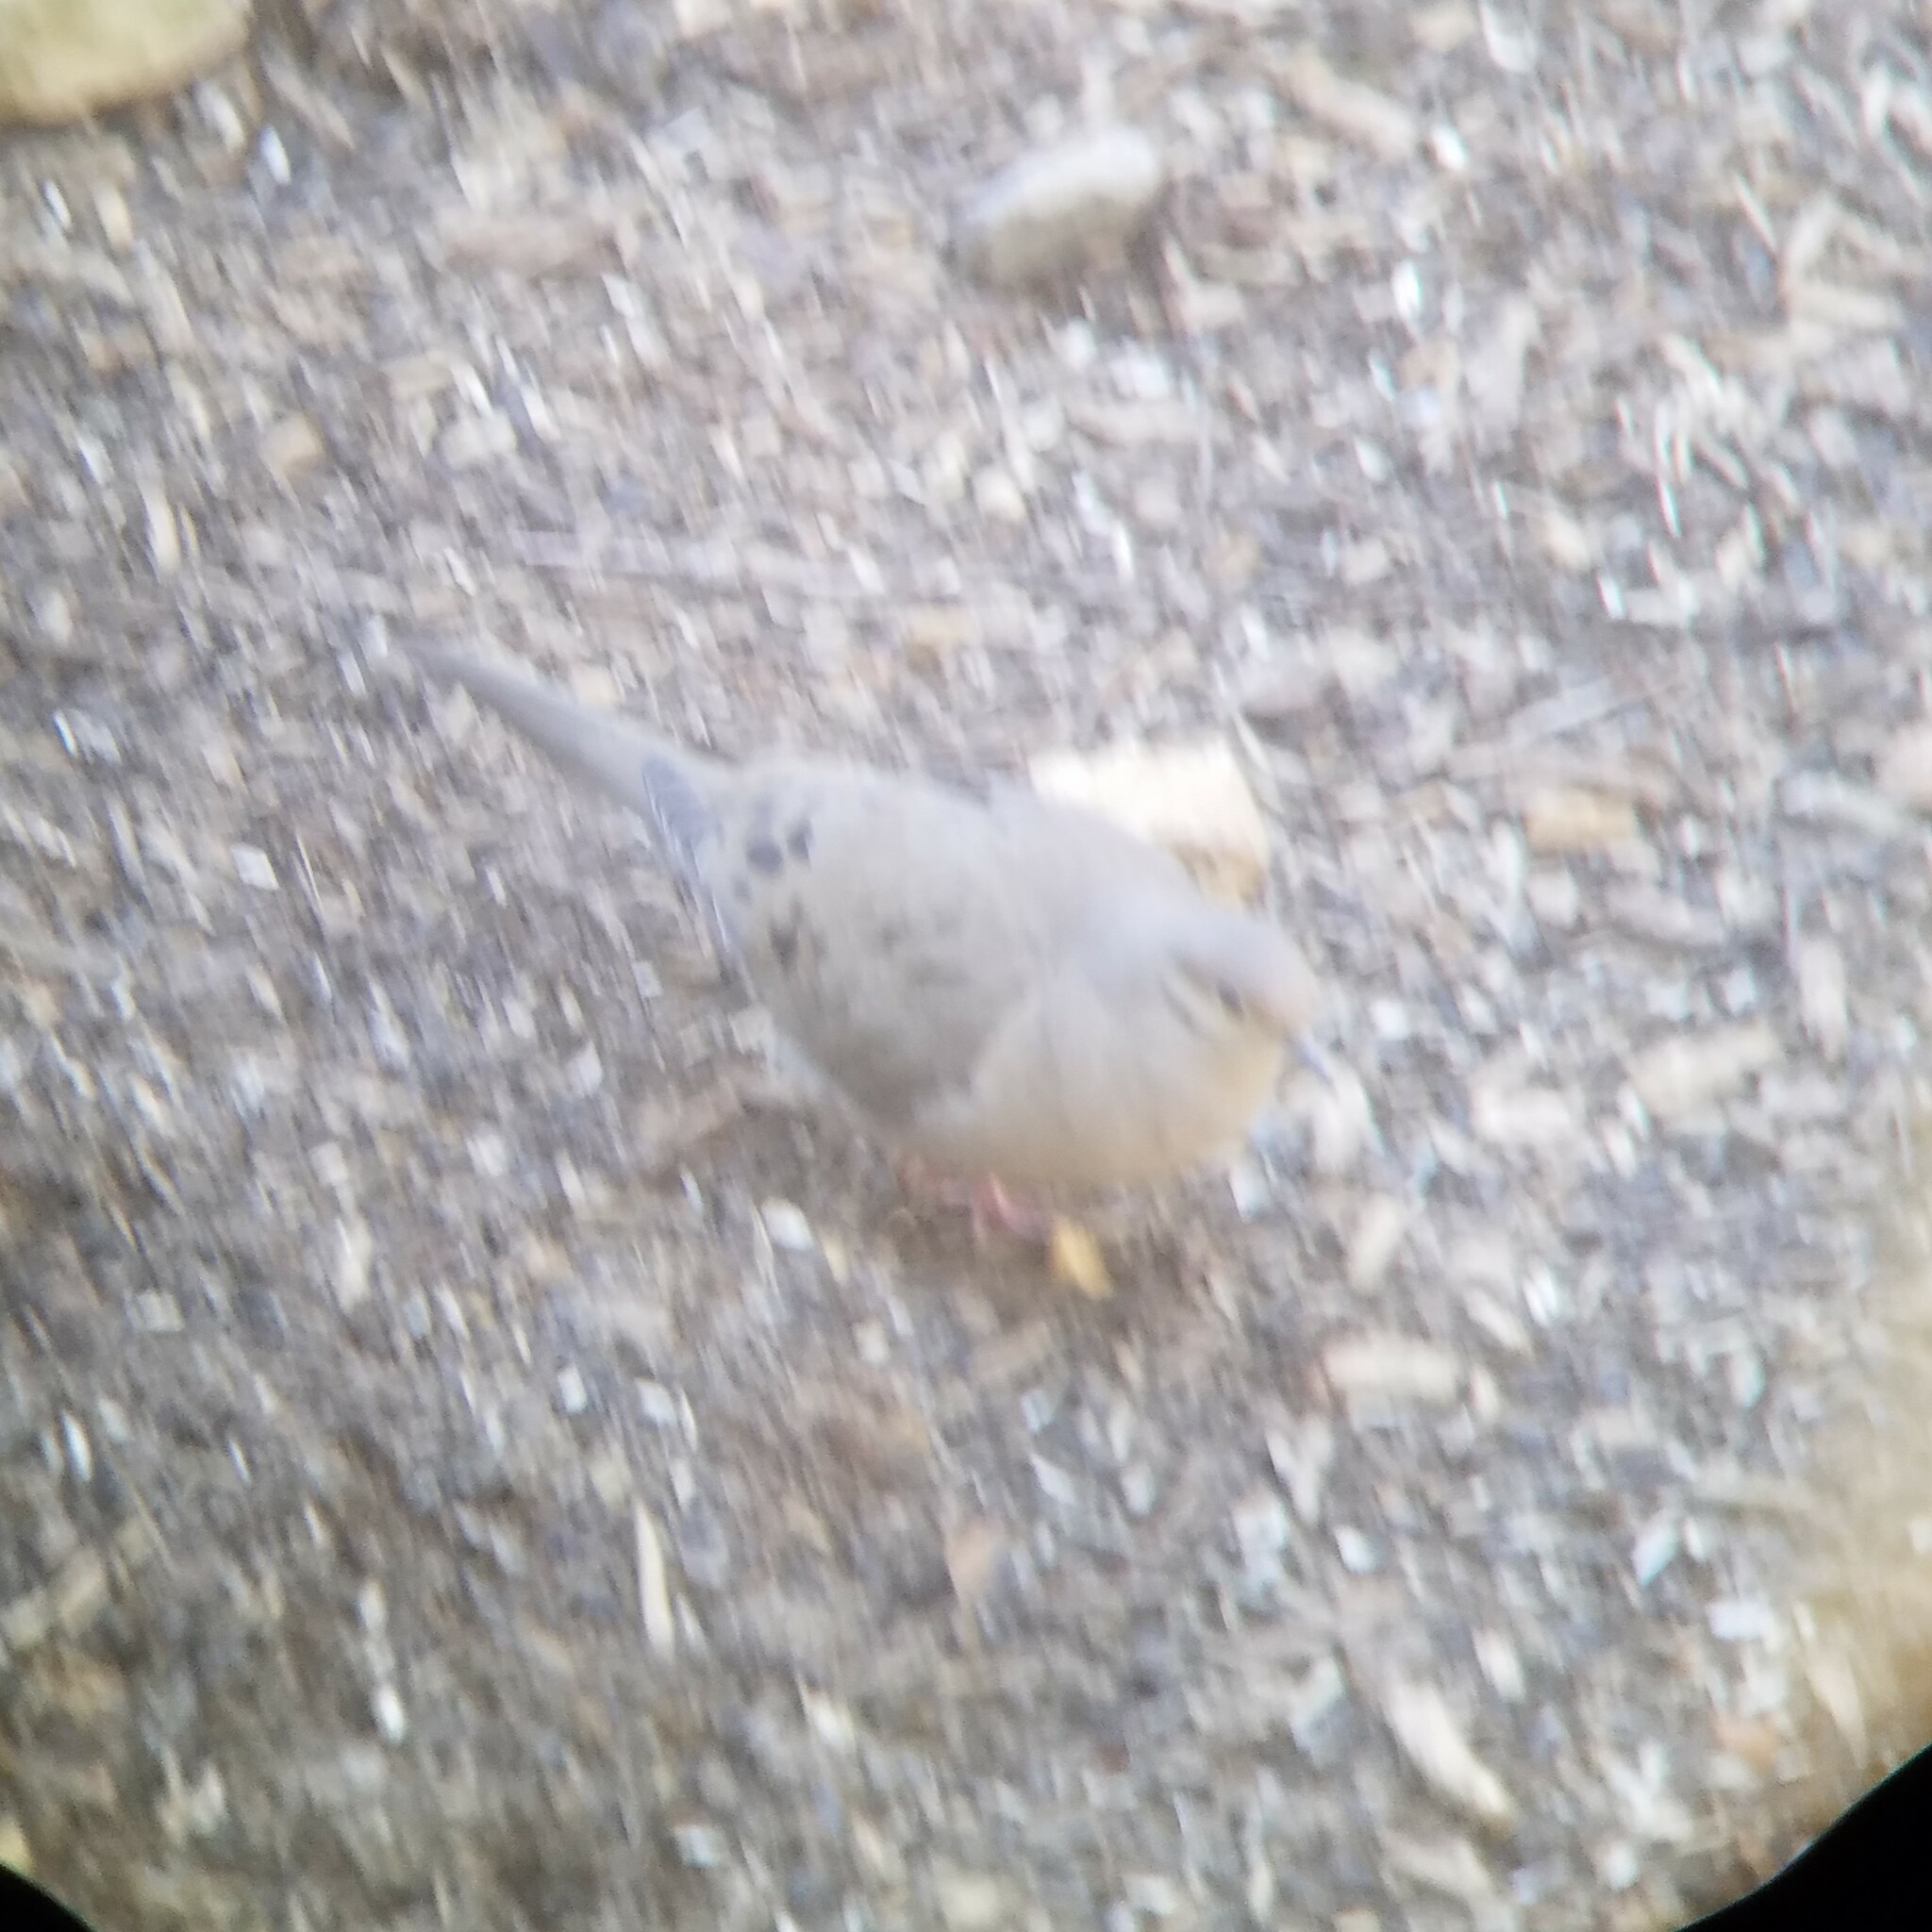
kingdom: Animalia
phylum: Chordata
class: Aves
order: Columbiformes
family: Columbidae
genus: Zenaida
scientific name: Zenaida macroura
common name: Mourning dove
